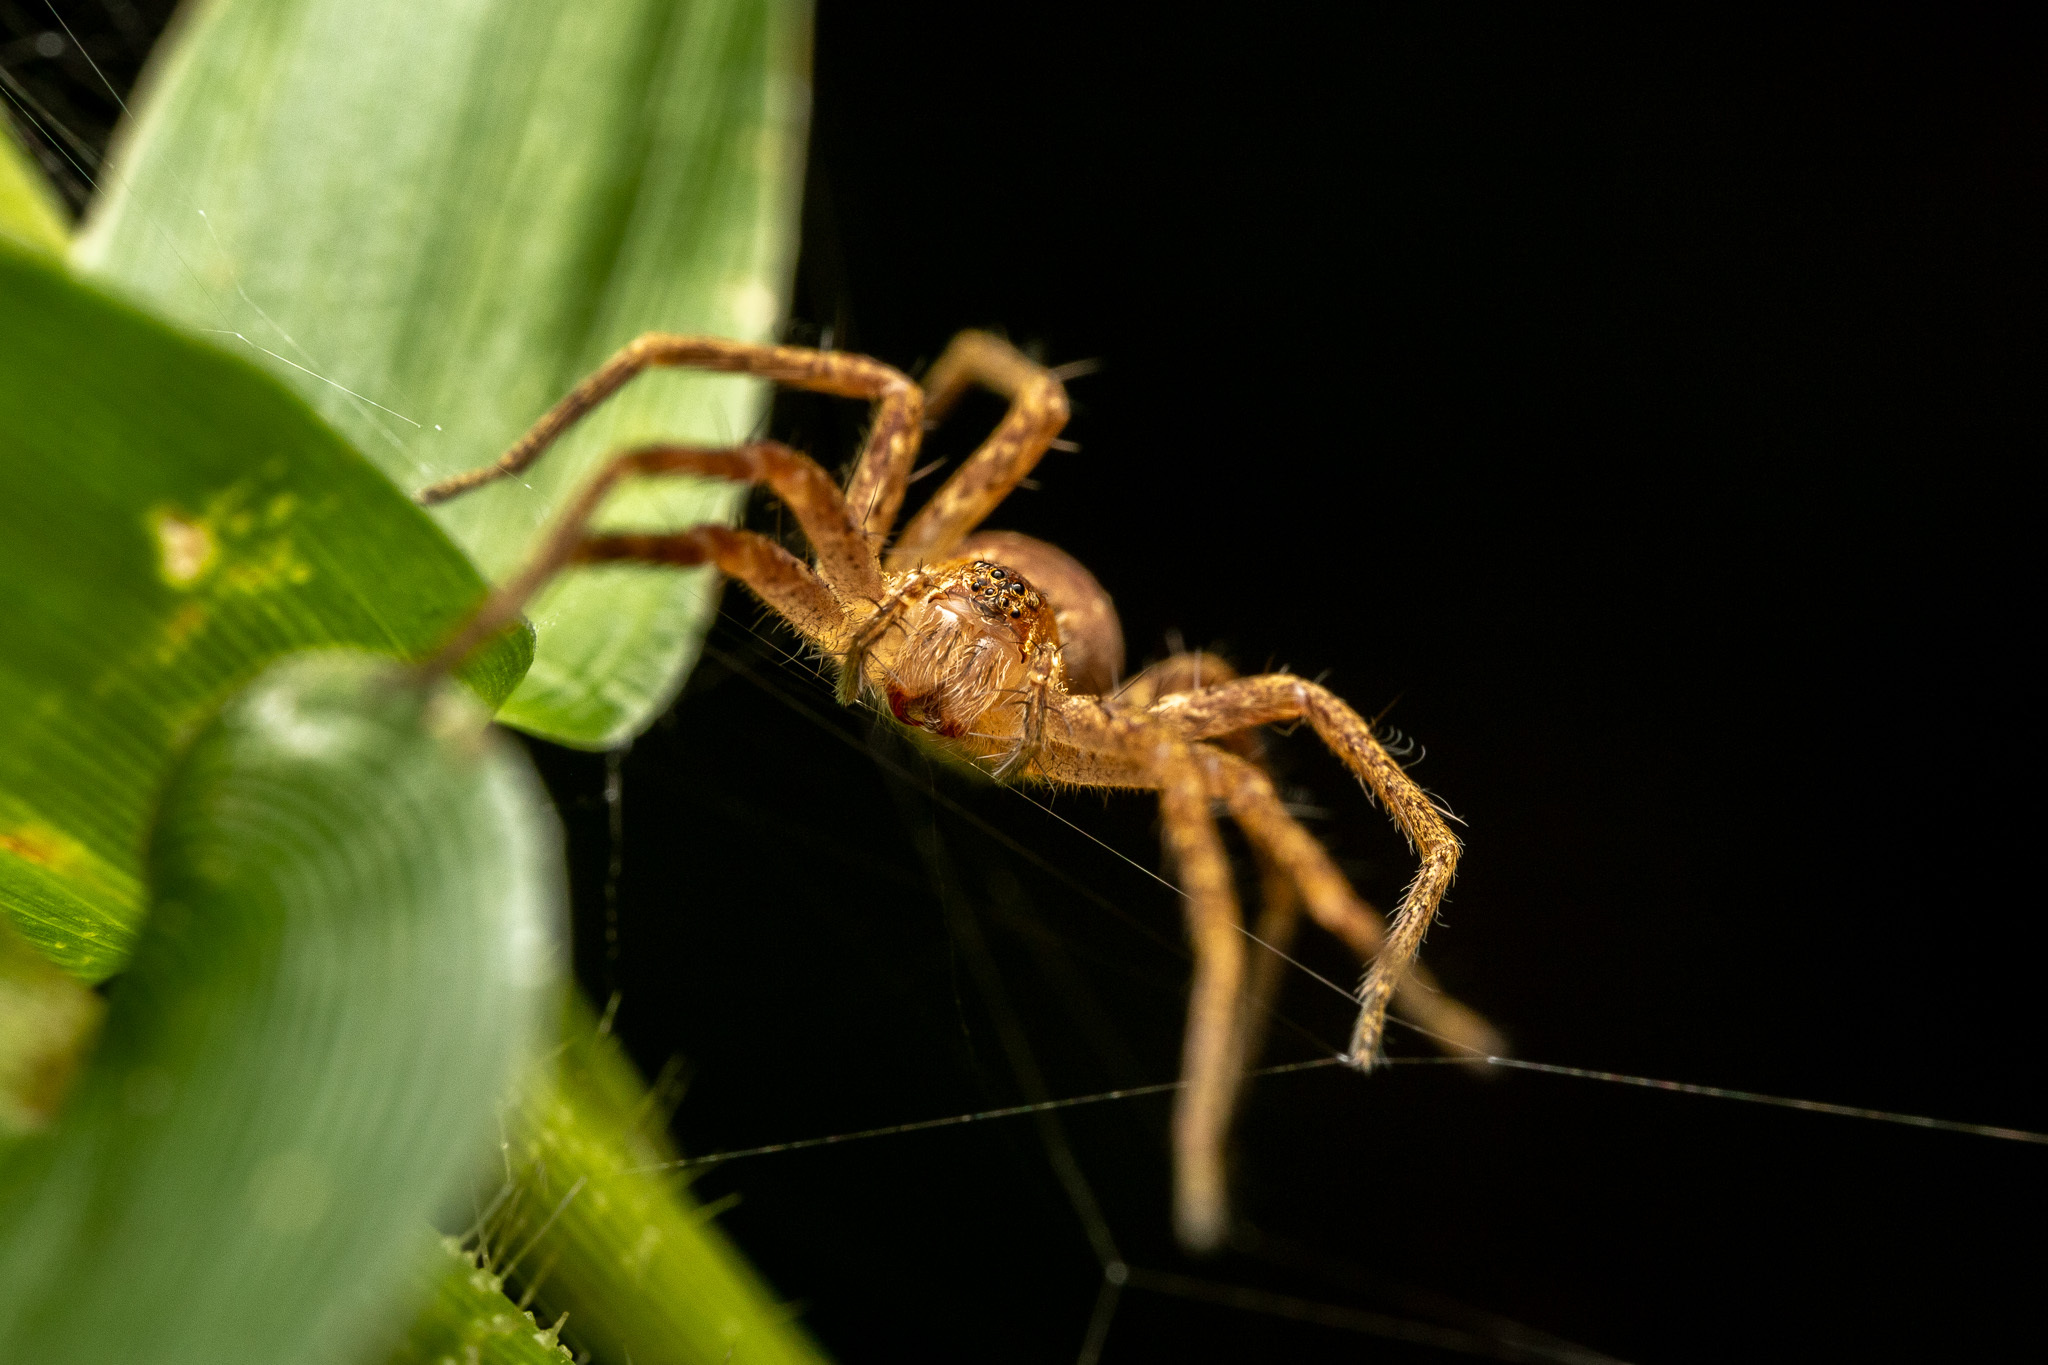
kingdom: Animalia
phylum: Arthropoda
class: Arachnida
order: Araneae
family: Pisauridae
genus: Pisaurina
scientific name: Pisaurina mira
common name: American nursery web spider
